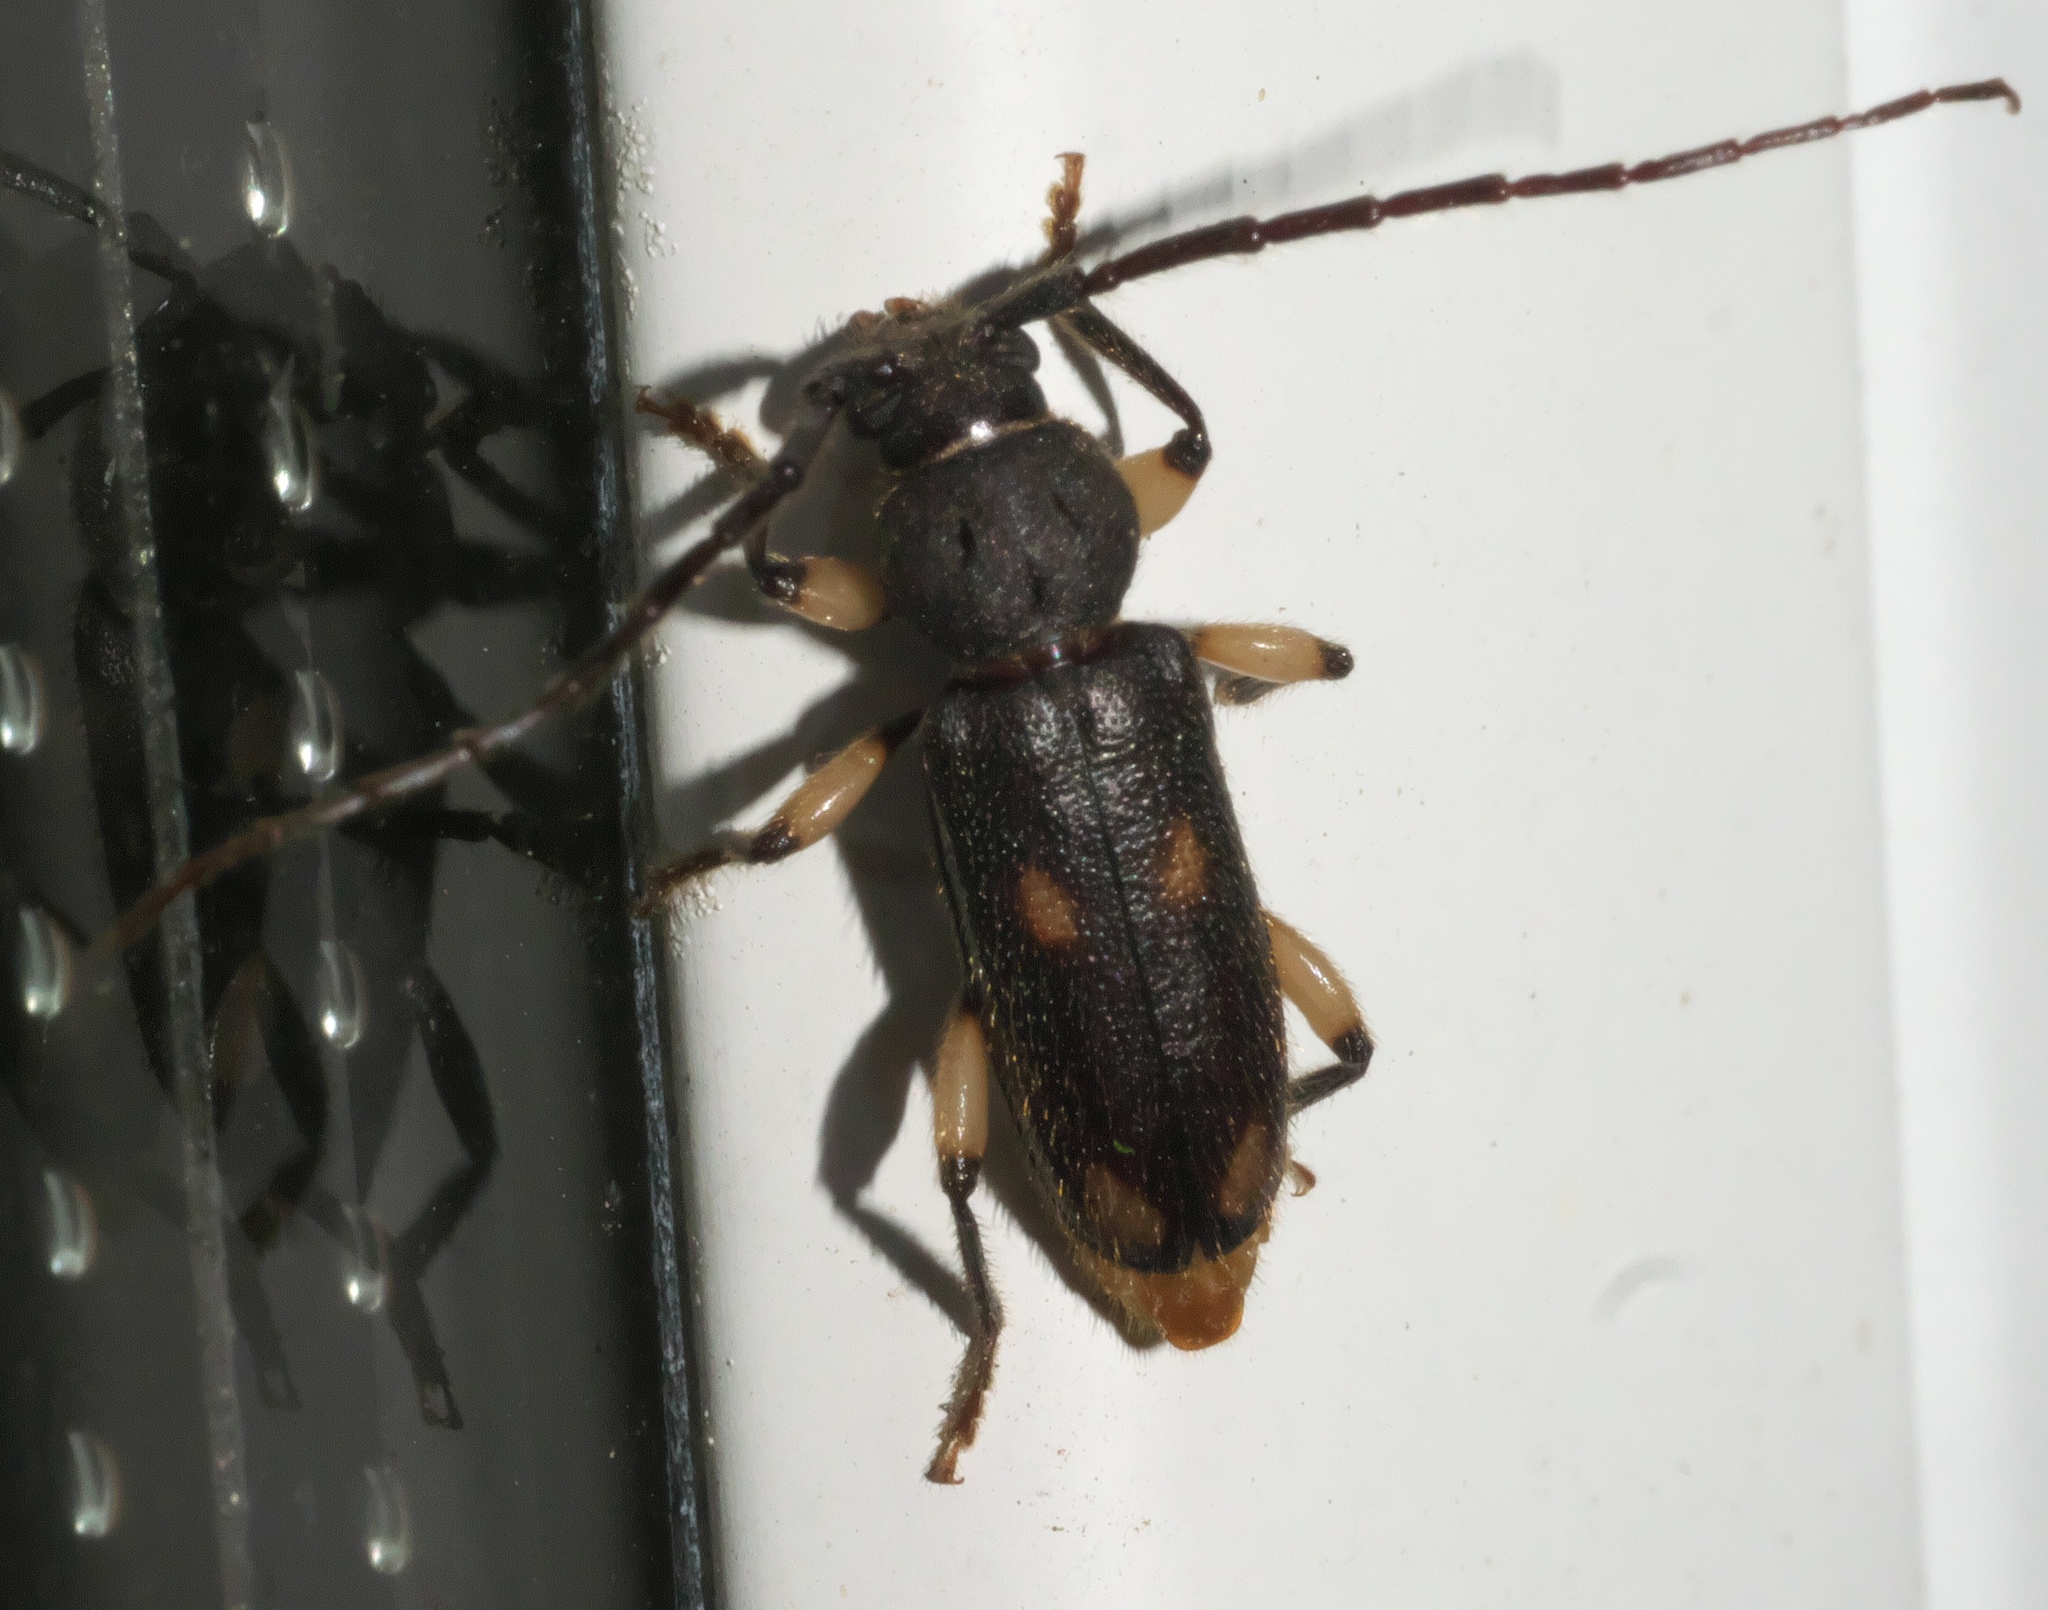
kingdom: Animalia
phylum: Arthropoda
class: Insecta
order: Coleoptera
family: Cerambycidae
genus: Tylonotus
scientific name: Tylonotus bimaculatus
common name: Ash and privet borer
